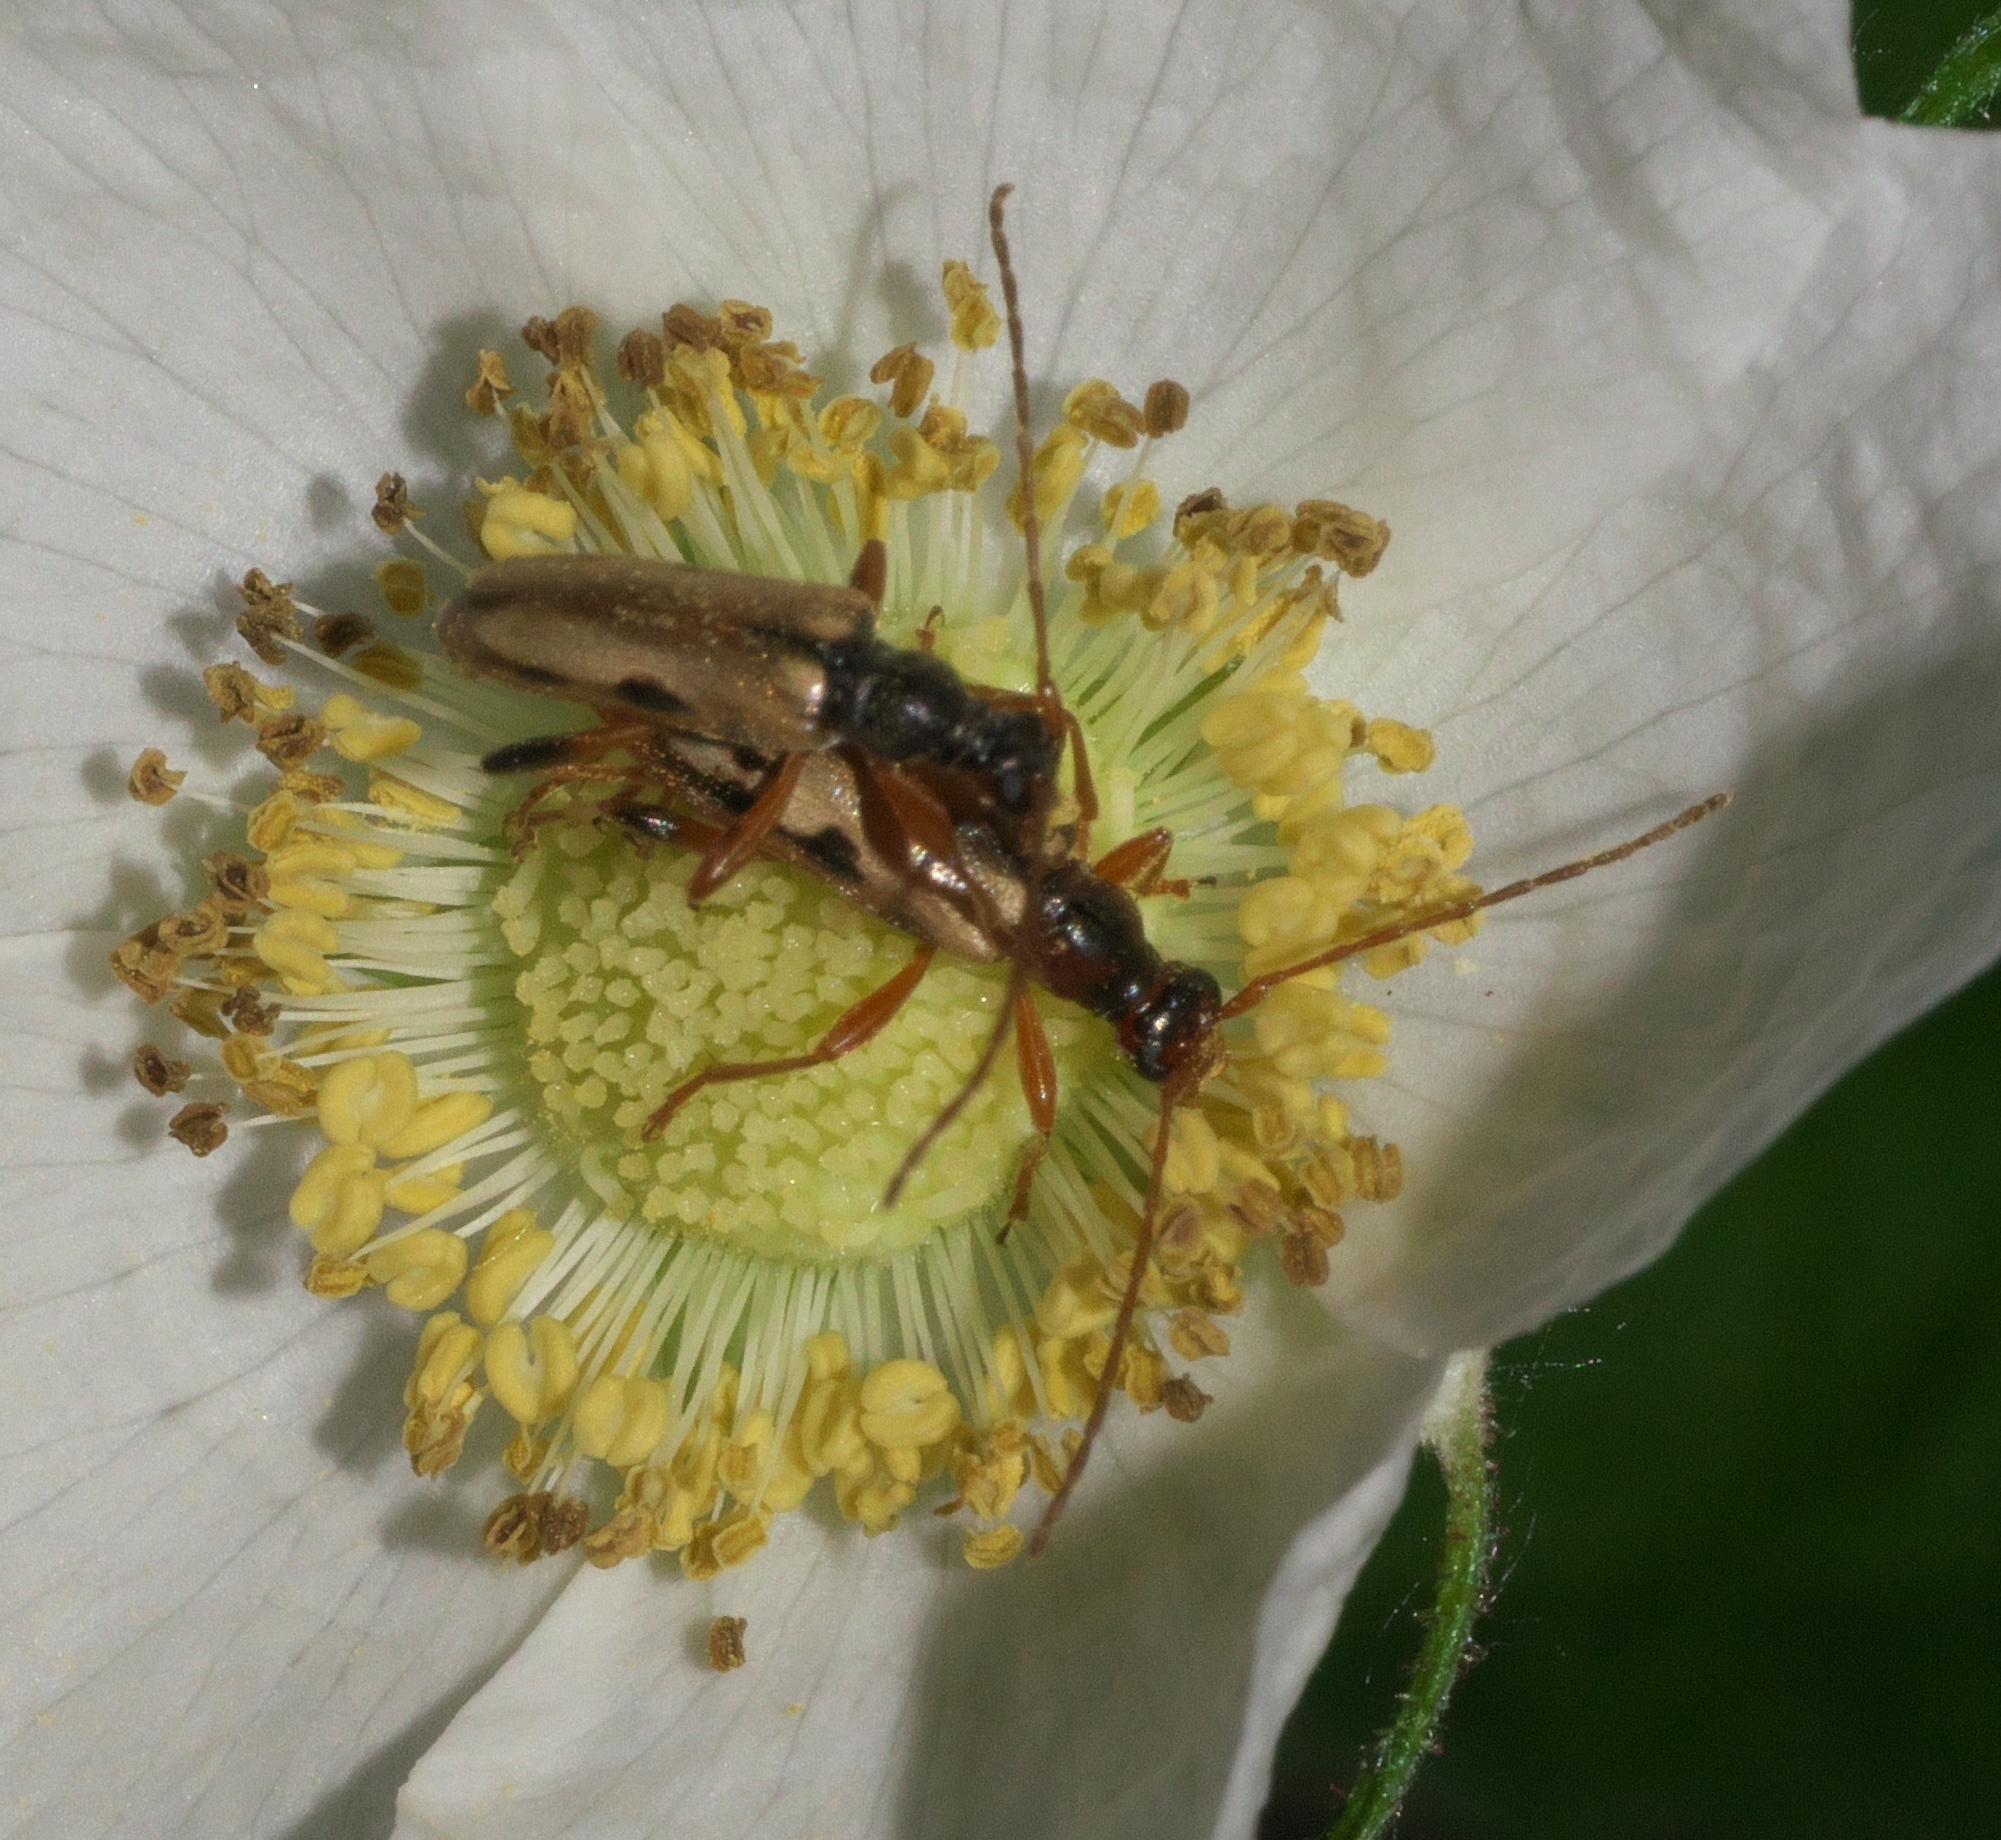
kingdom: Animalia
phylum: Arthropoda
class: Insecta
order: Coleoptera
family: Cerambycidae
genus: Pidonia
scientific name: Pidonia scripta
